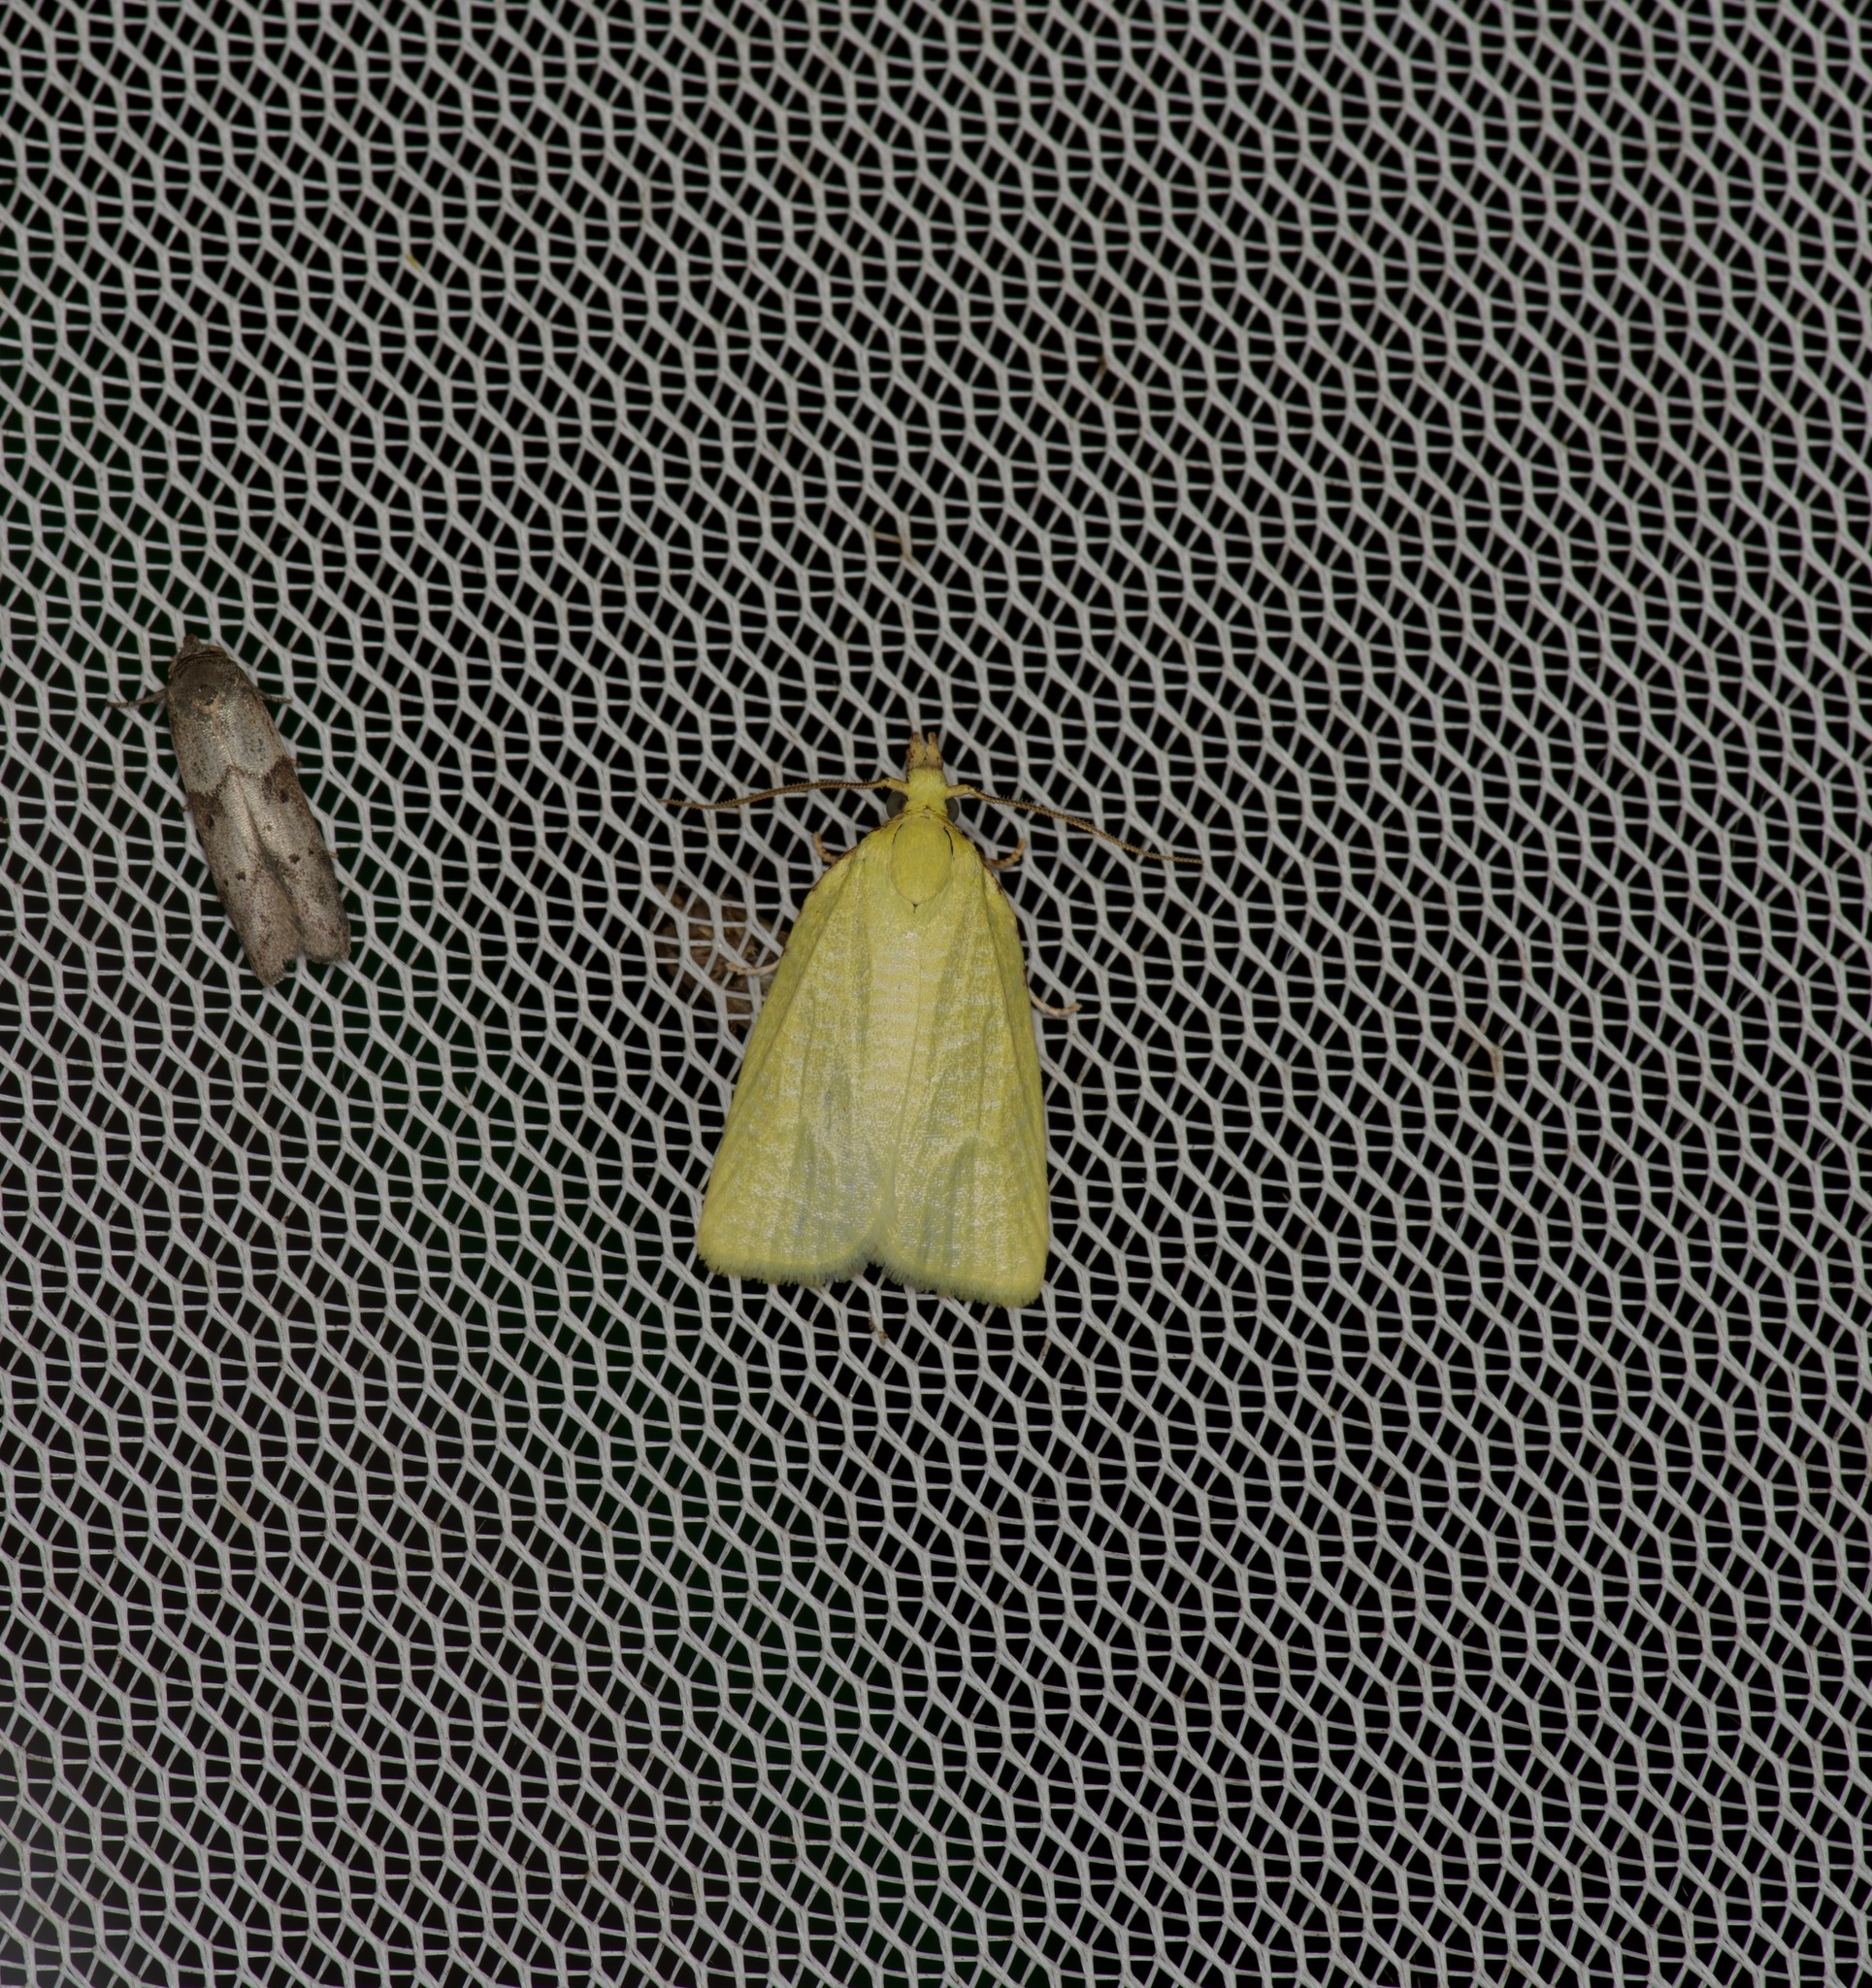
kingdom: Animalia
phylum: Arthropoda
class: Insecta
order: Lepidoptera
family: Tortricidae
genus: Cenopis
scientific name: Cenopis pettitana
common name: Maple-basswood leafroller moth
